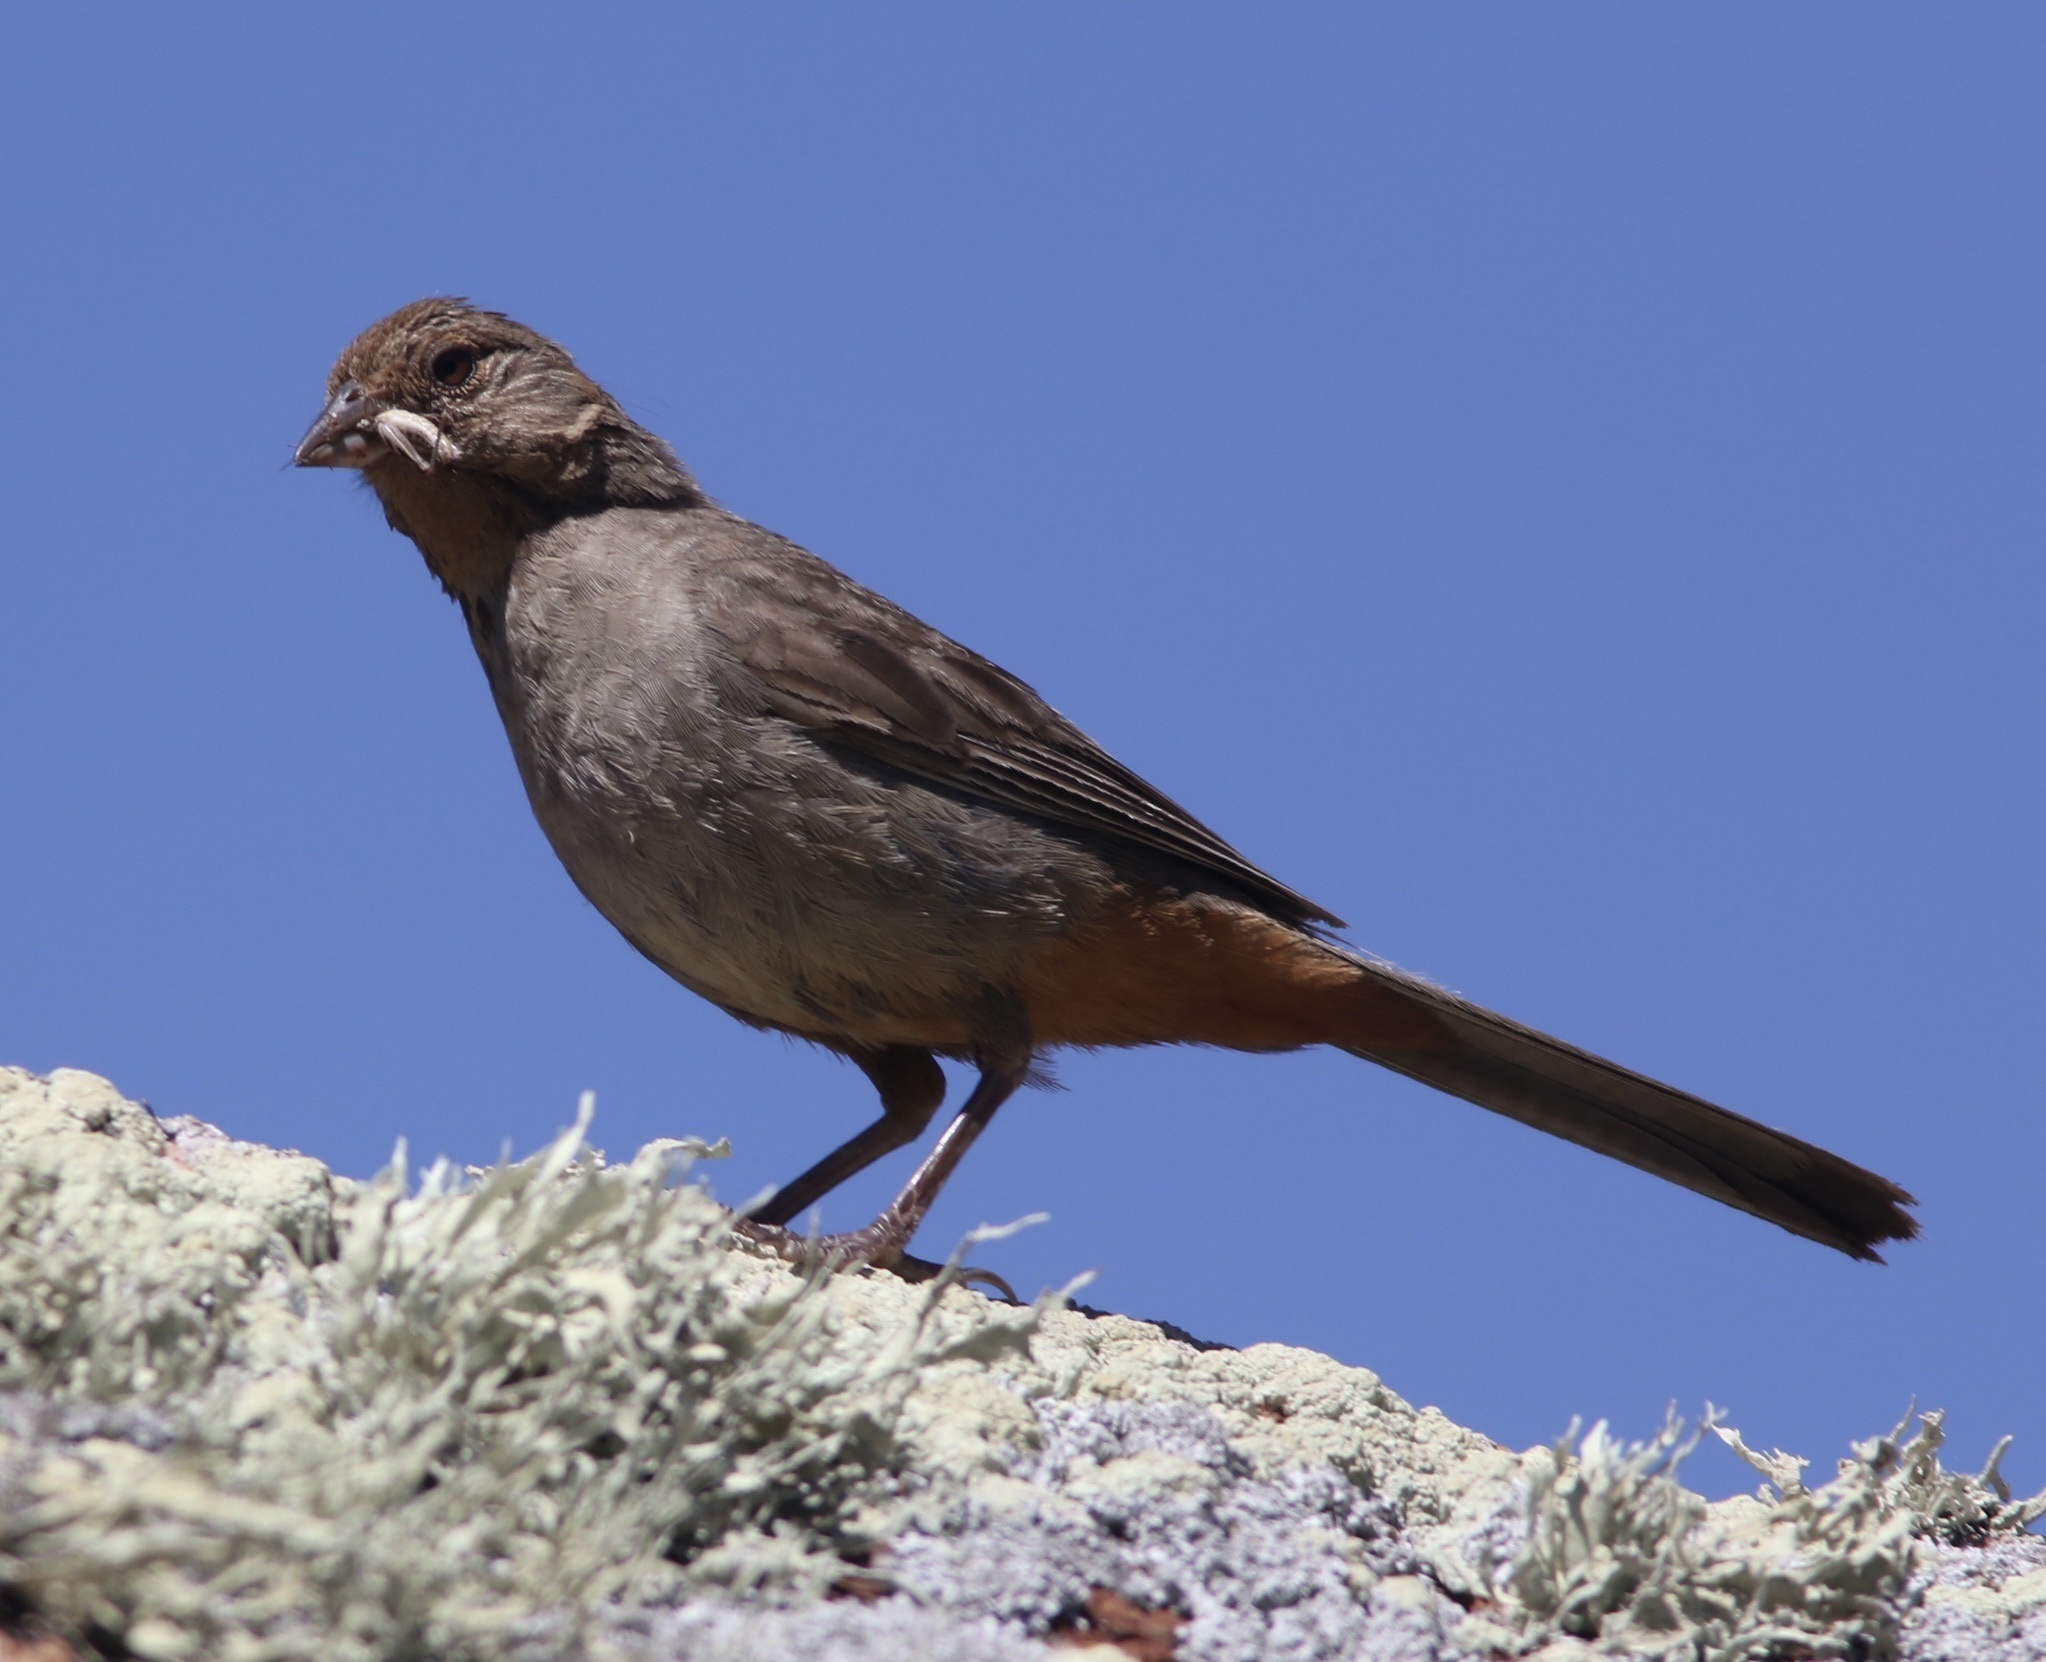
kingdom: Animalia
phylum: Chordata
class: Aves
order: Passeriformes
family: Passerellidae
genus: Melozone
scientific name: Melozone crissalis
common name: California towhee
